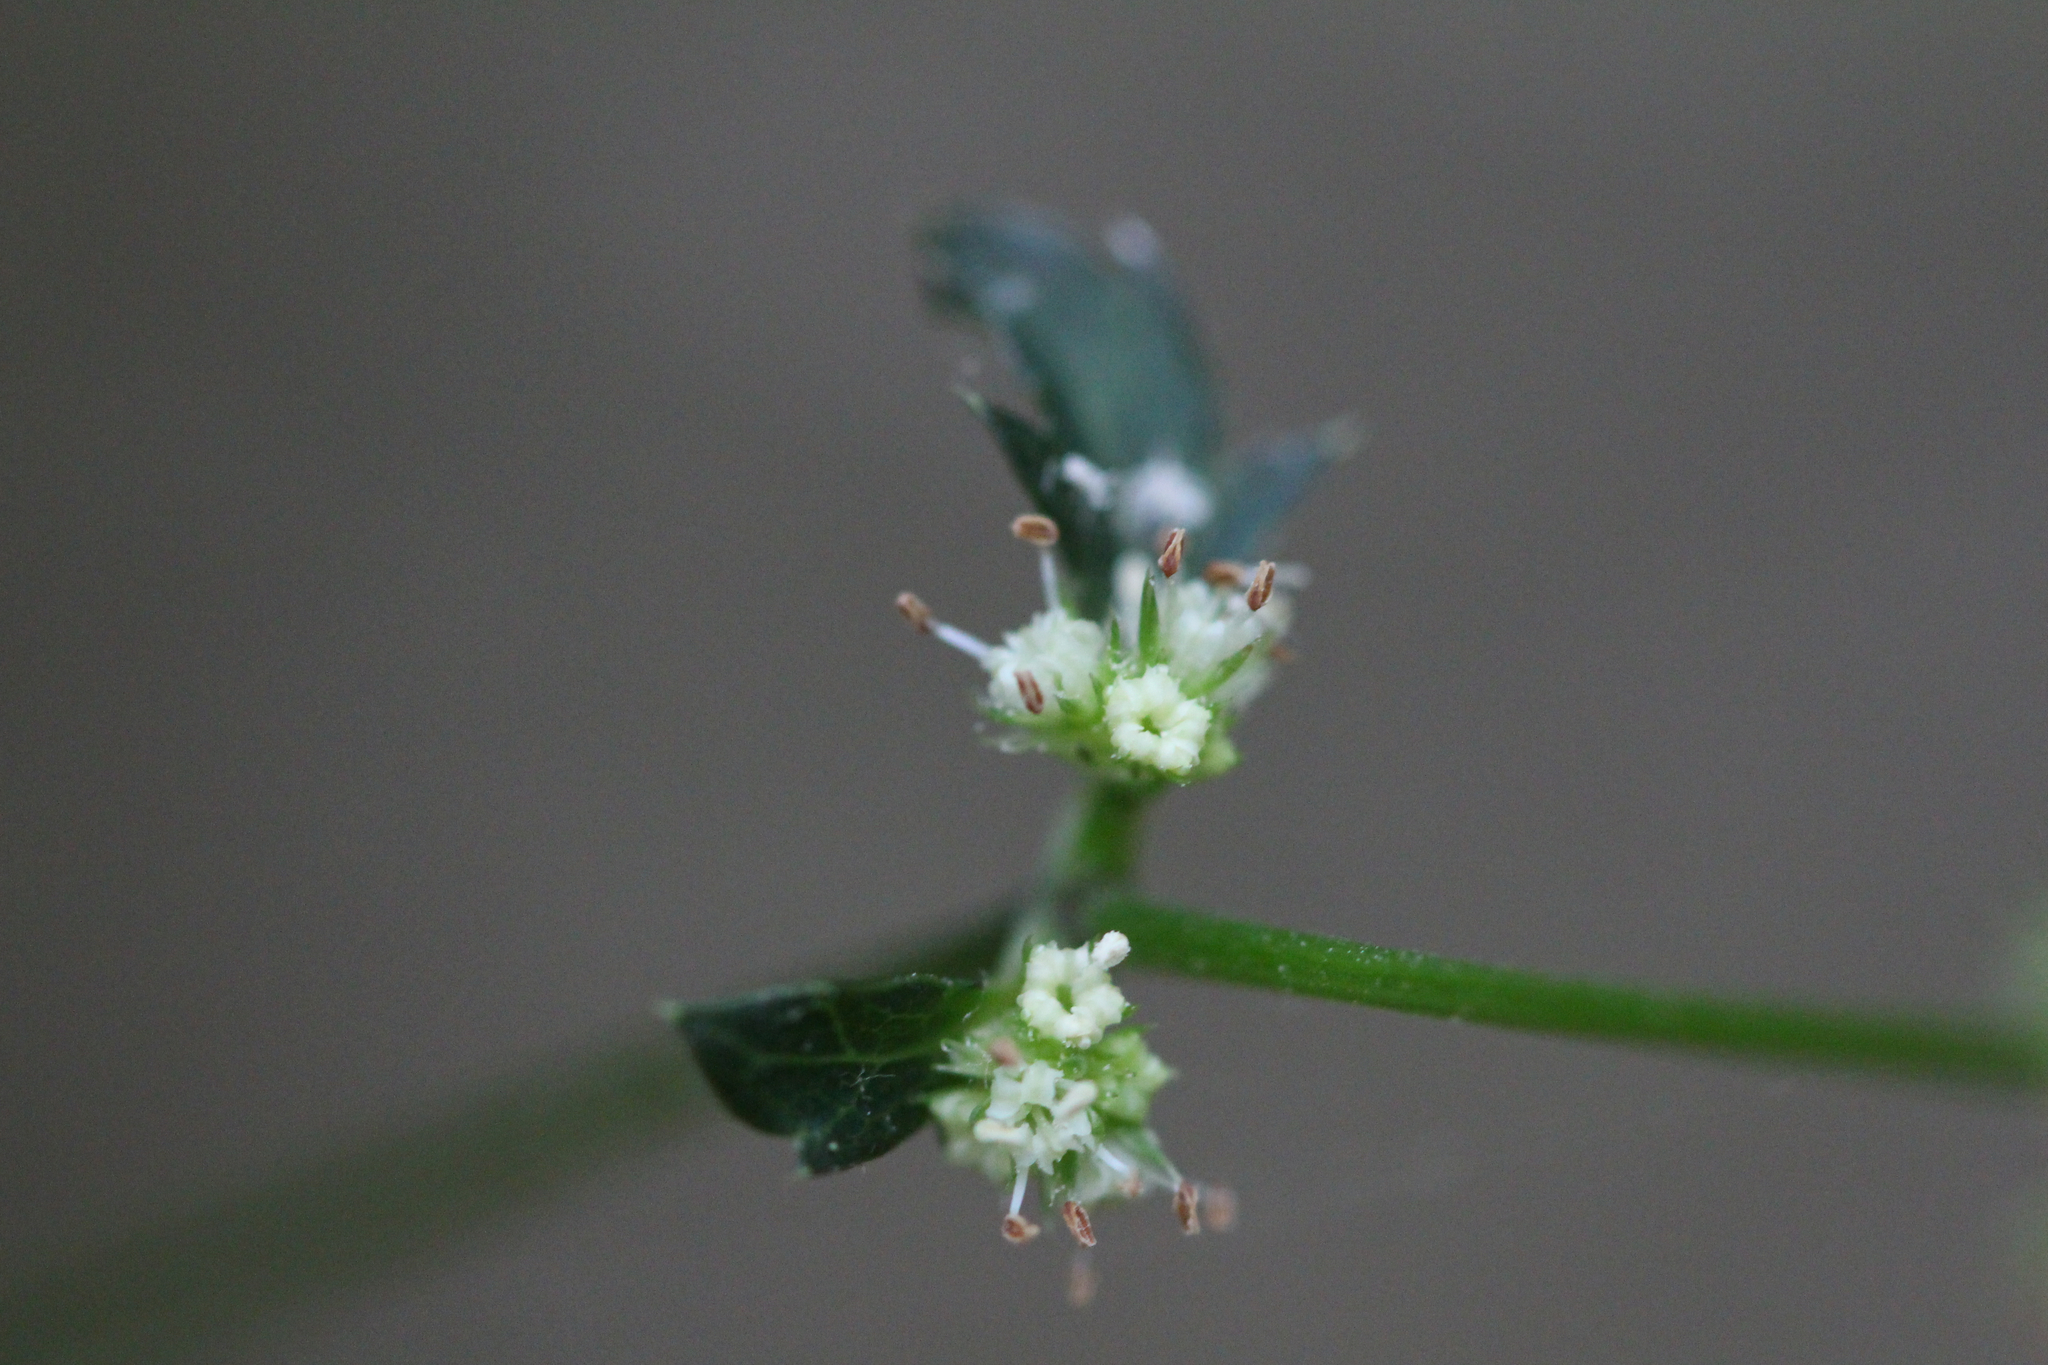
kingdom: Plantae
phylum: Tracheophyta
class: Magnoliopsida
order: Apiales
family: Apiaceae
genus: Sanicula
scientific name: Sanicula canadensis
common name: Canada sanicle
